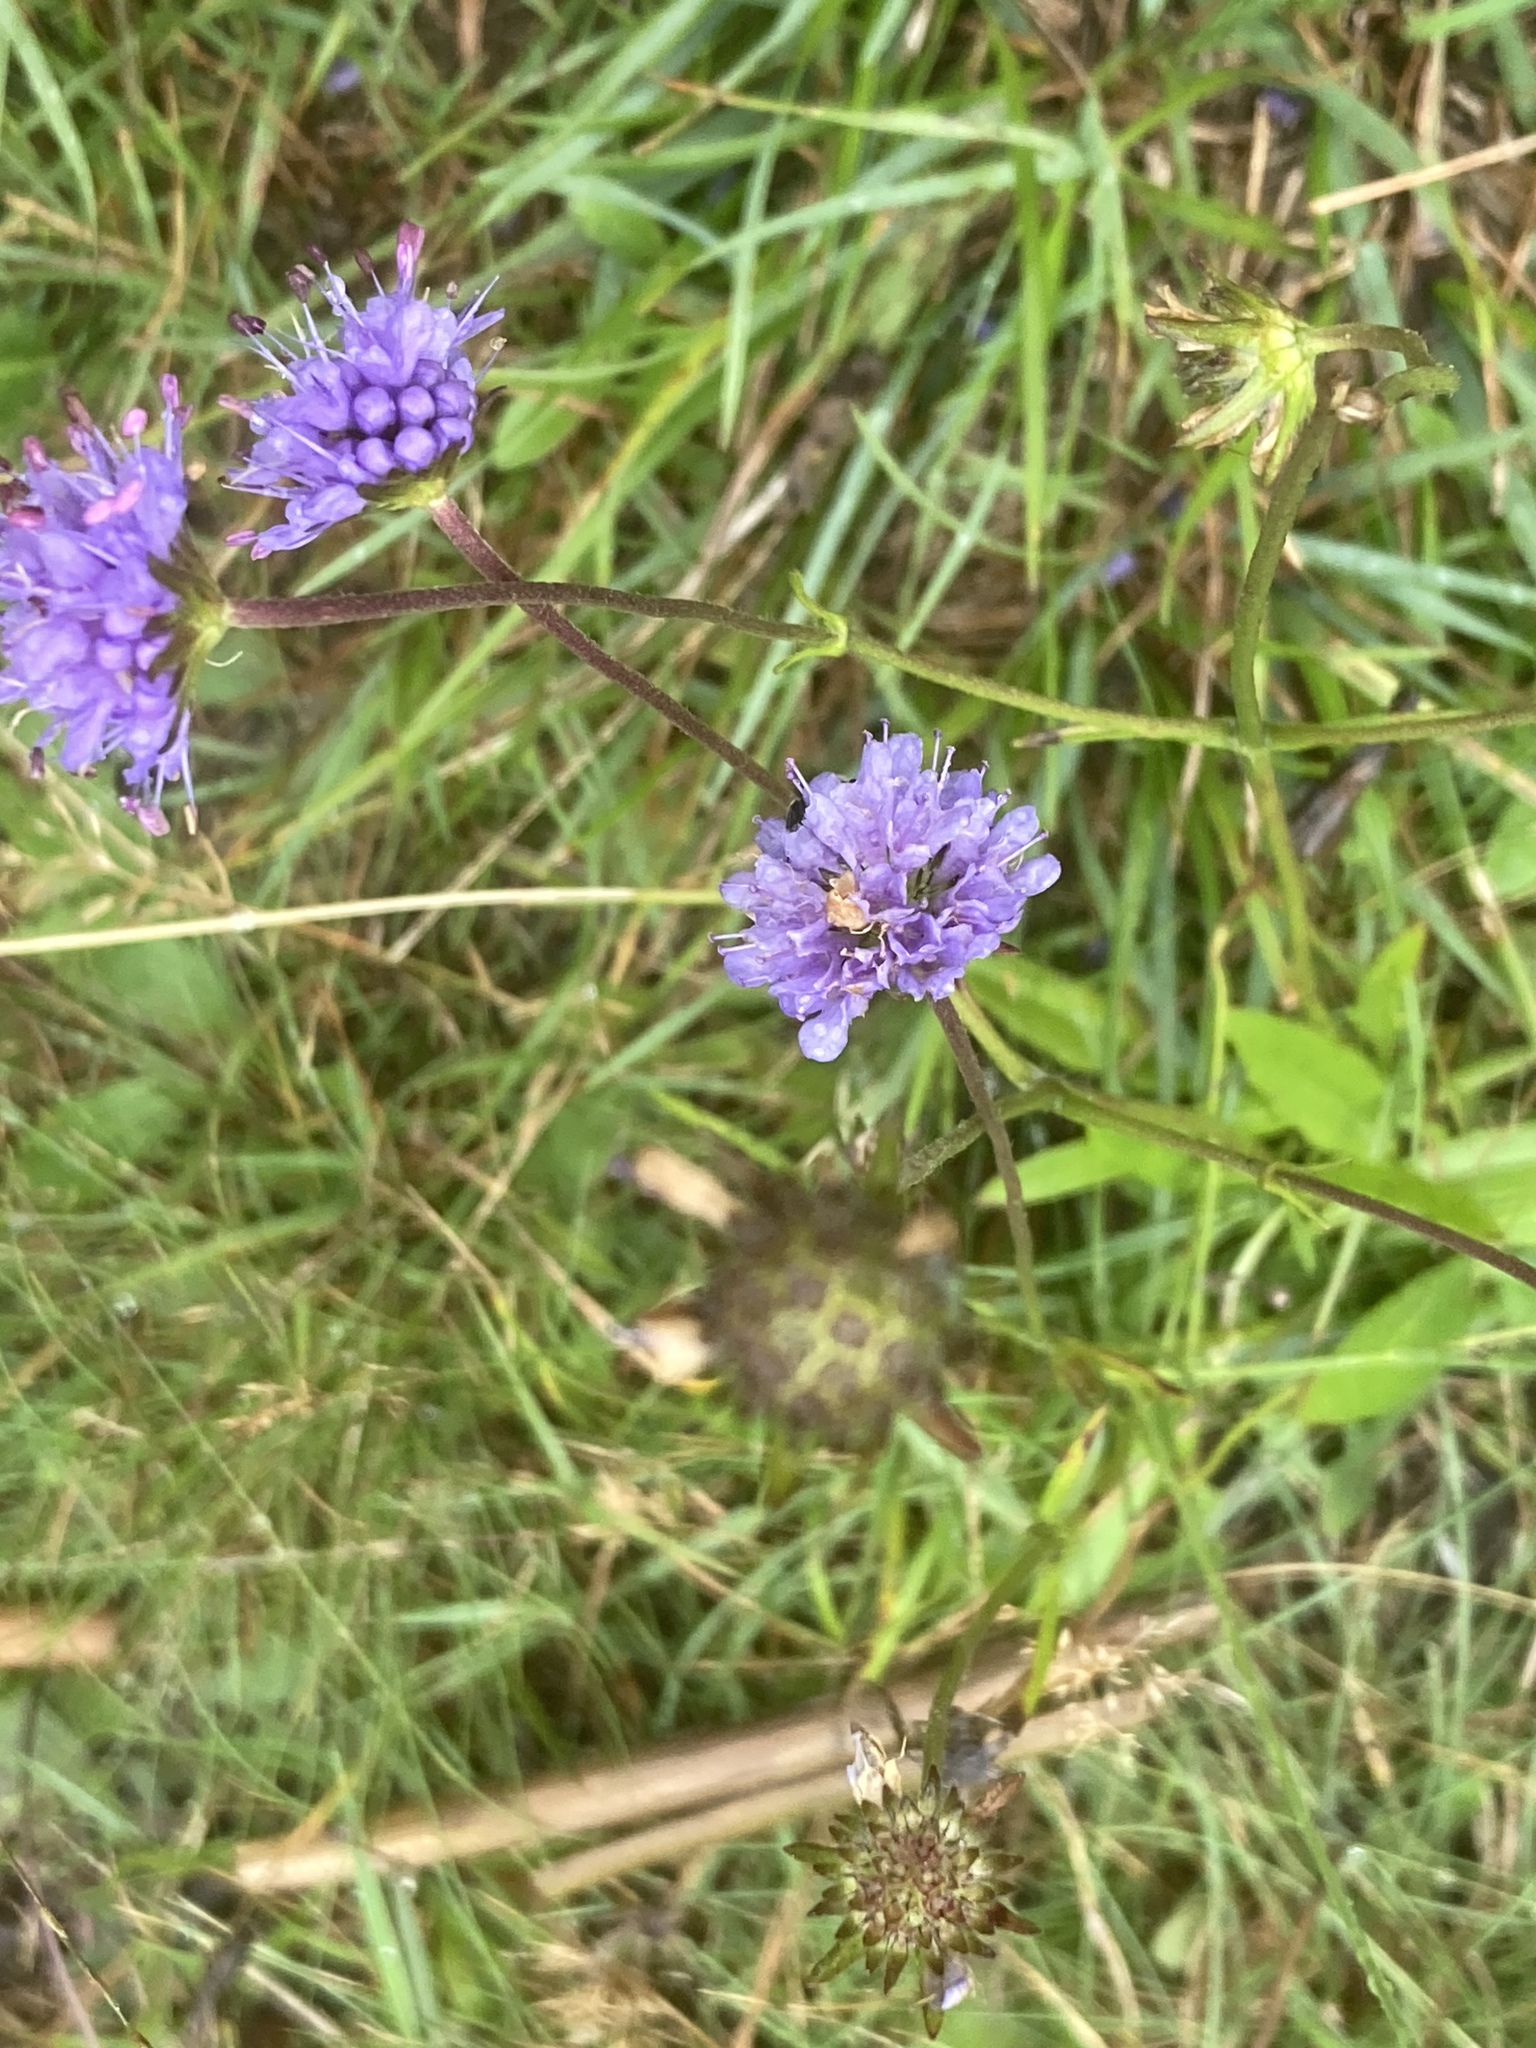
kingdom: Plantae
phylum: Tracheophyta
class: Magnoliopsida
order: Dipsacales
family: Caprifoliaceae
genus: Succisa
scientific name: Succisa pratensis
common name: Devil's-bit
